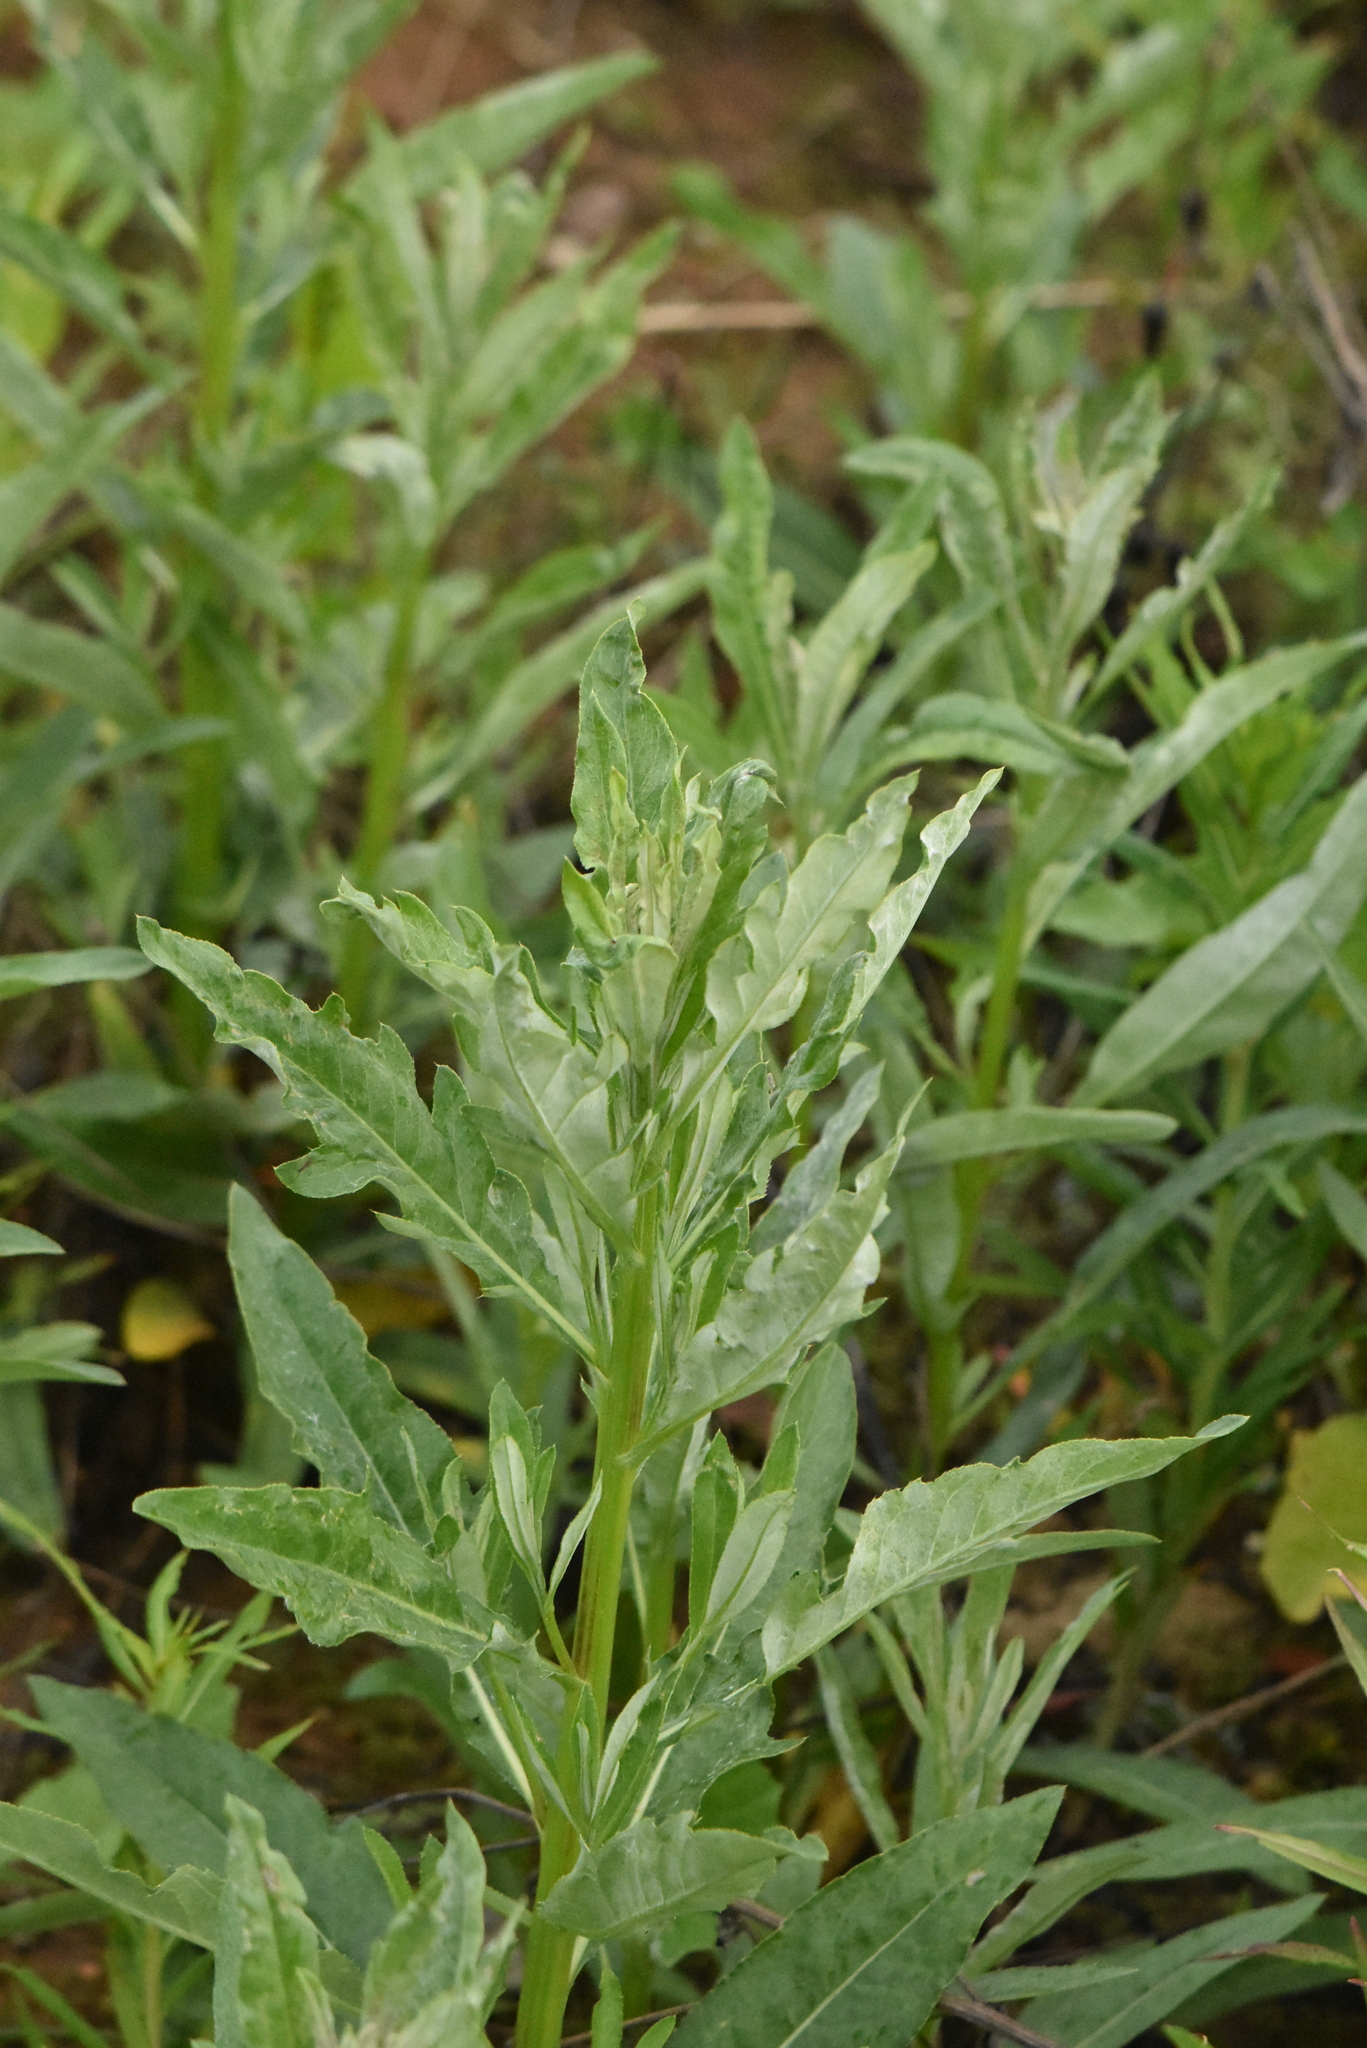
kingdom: Plantae
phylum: Tracheophyta
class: Magnoliopsida
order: Asterales
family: Asteraceae
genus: Cirsium
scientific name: Cirsium arvense
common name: Creeping thistle
